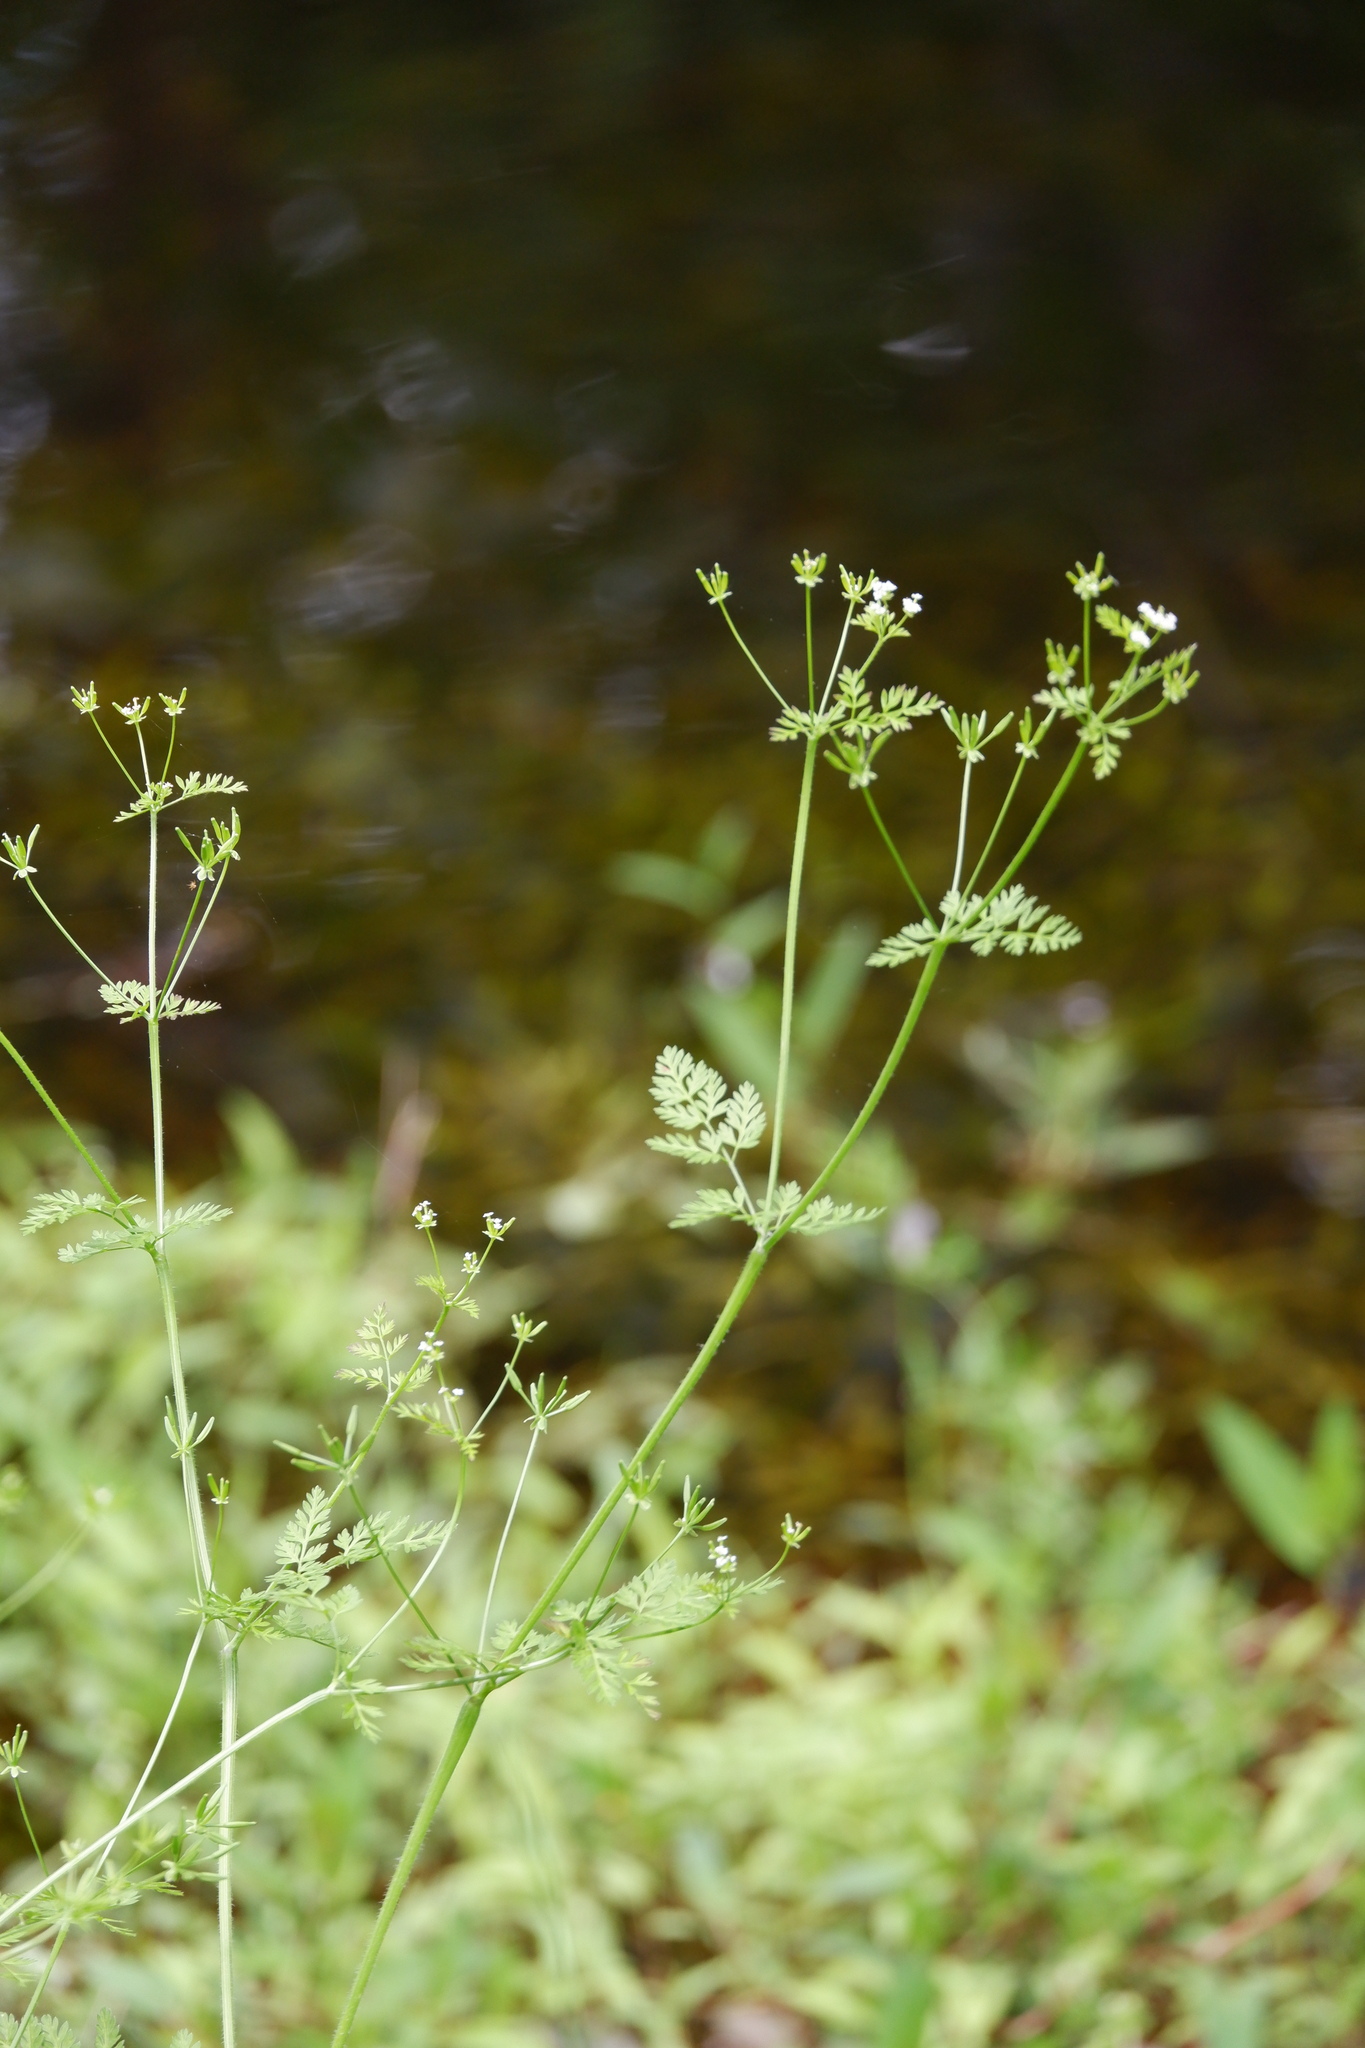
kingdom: Plantae
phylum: Tracheophyta
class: Magnoliopsida
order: Apiales
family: Apiaceae
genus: Chaerophyllum
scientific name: Chaerophyllum tainturieri
